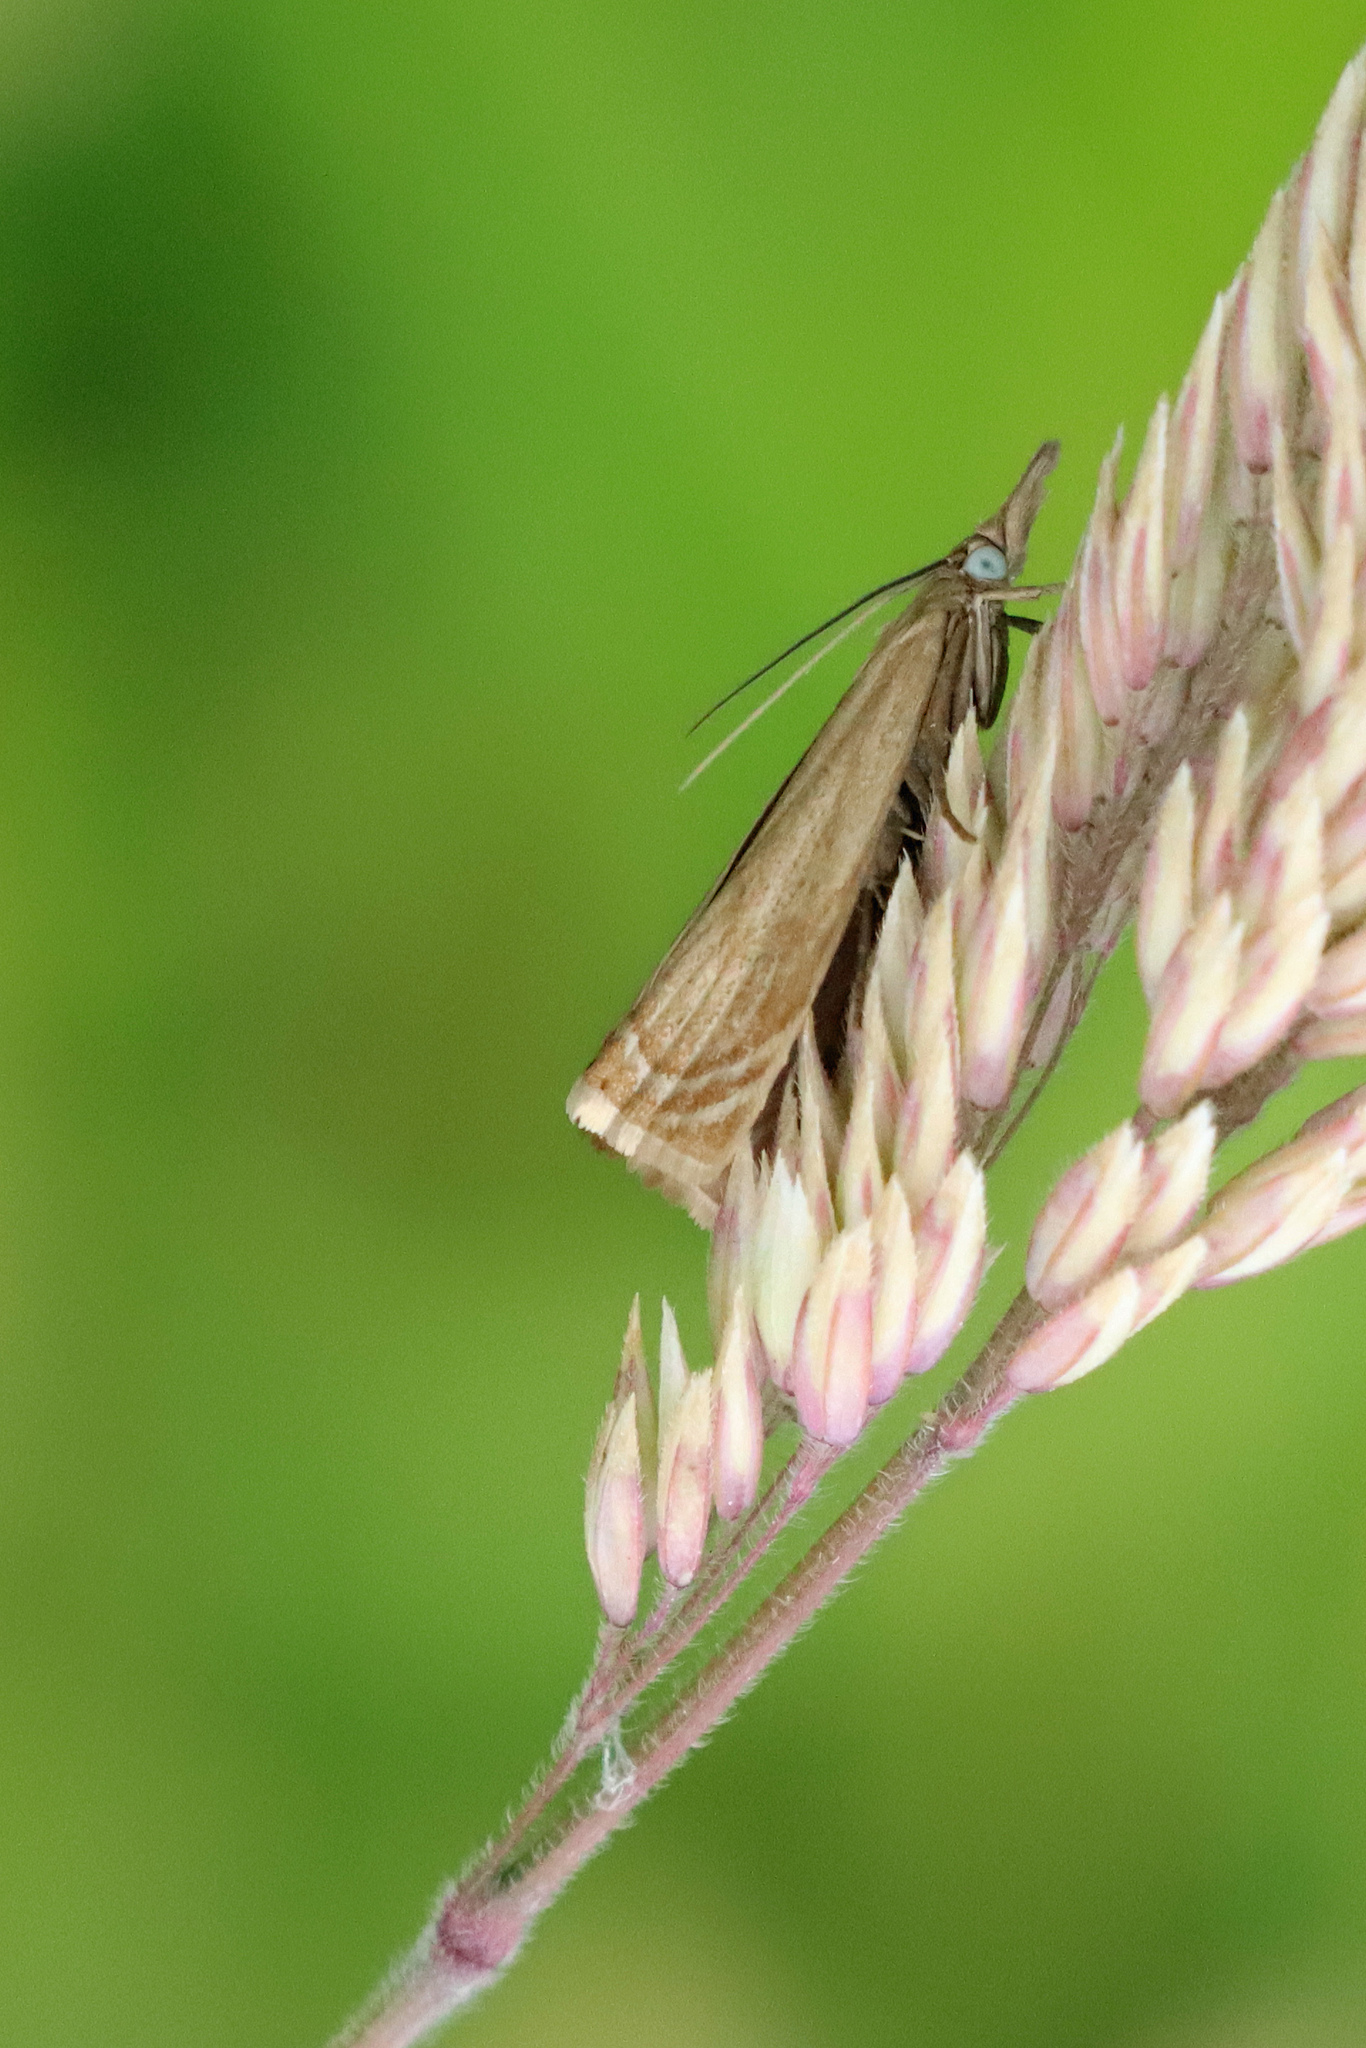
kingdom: Animalia
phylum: Arthropoda
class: Insecta
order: Lepidoptera
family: Crambidae
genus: Chrysoteuchia
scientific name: Chrysoteuchia culmella
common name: Garden grass-veneer
